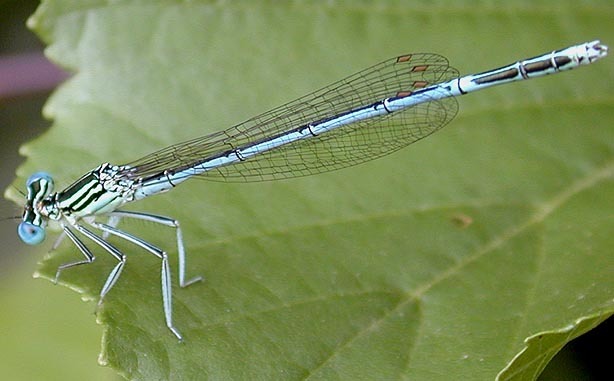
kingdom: Animalia
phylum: Arthropoda
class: Insecta
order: Odonata
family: Platycnemididae
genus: Platycnemis
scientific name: Platycnemis pennipes
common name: White-legged damselfly
